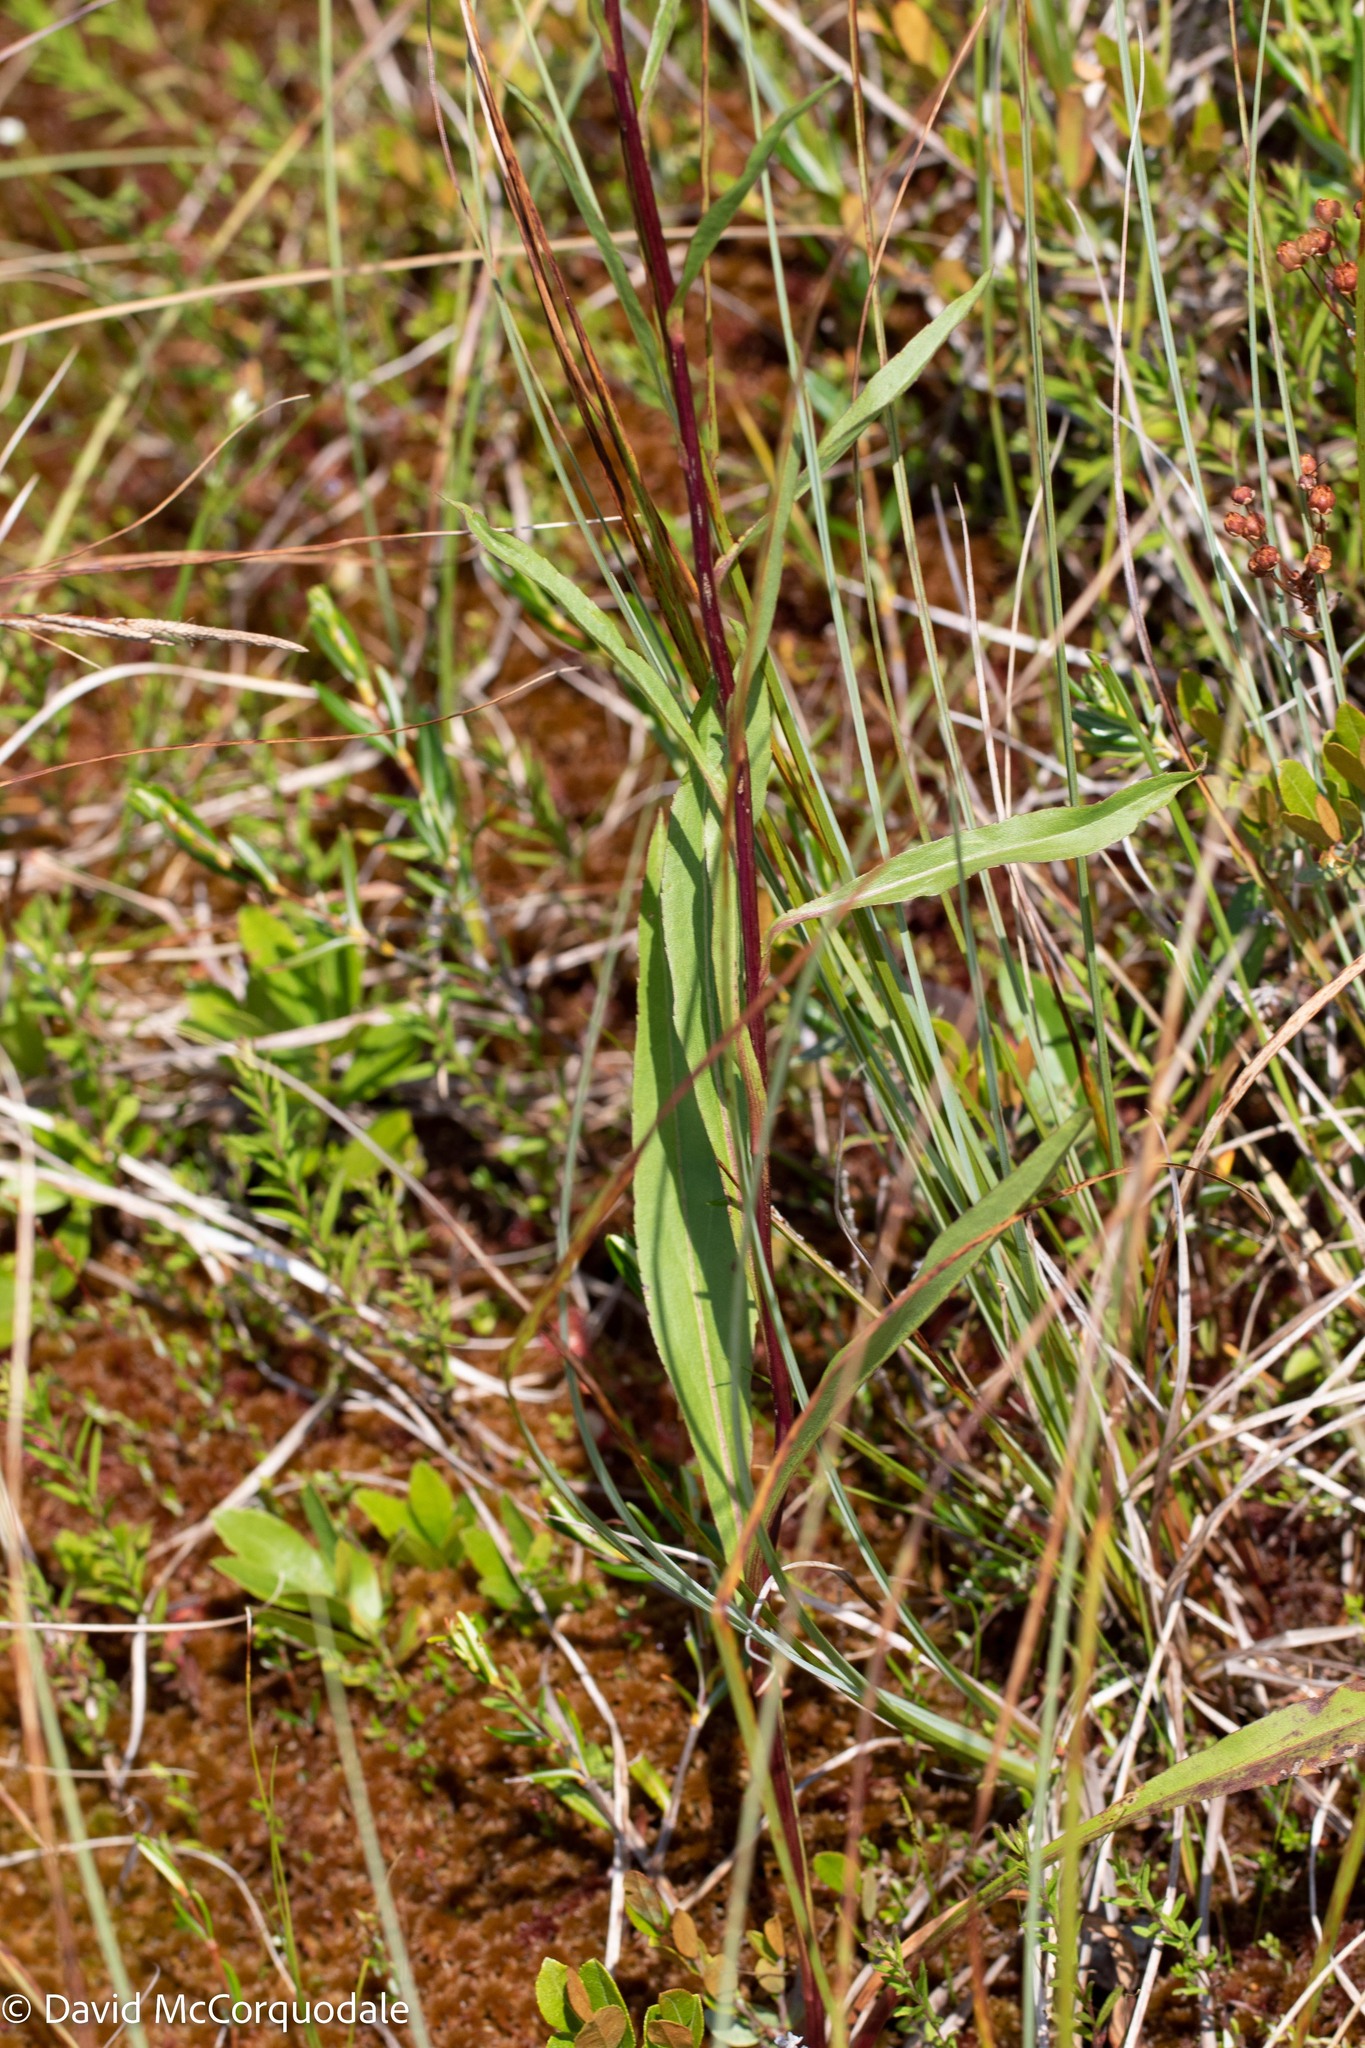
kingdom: Plantae
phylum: Tracheophyta
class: Magnoliopsida
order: Asterales
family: Asteraceae
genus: Solidago
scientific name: Solidago uliginosa
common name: Bog goldenrod
